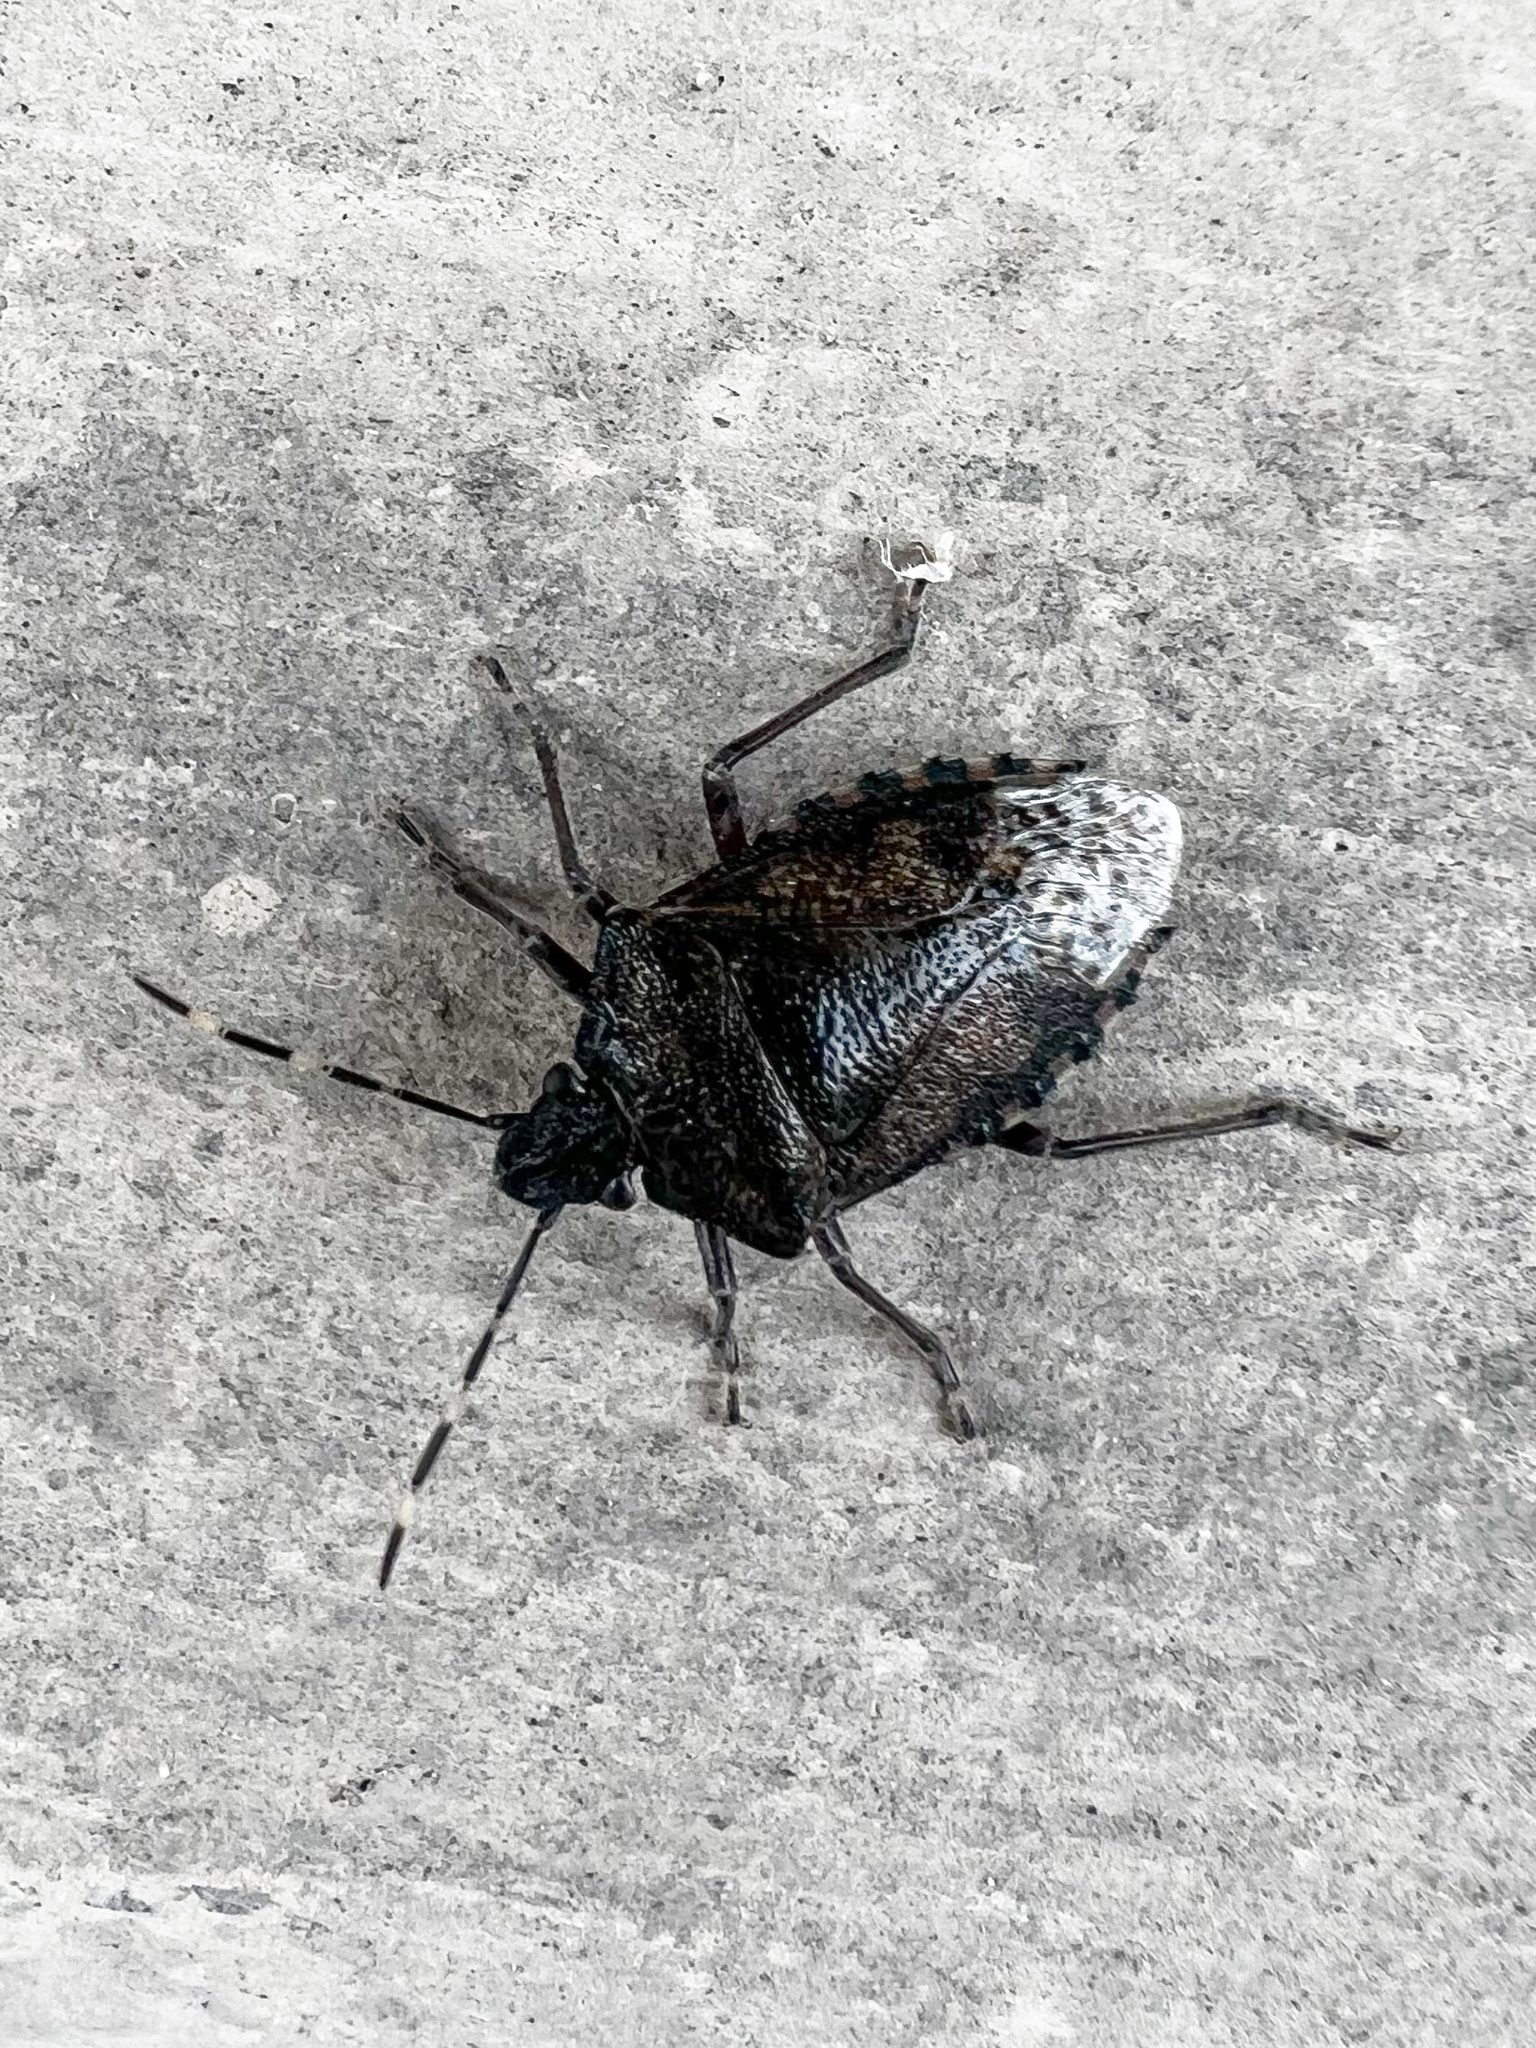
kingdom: Animalia
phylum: Arthropoda
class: Insecta
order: Hemiptera
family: Pentatomidae
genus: Rhaphigaster
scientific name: Rhaphigaster nebulosa
